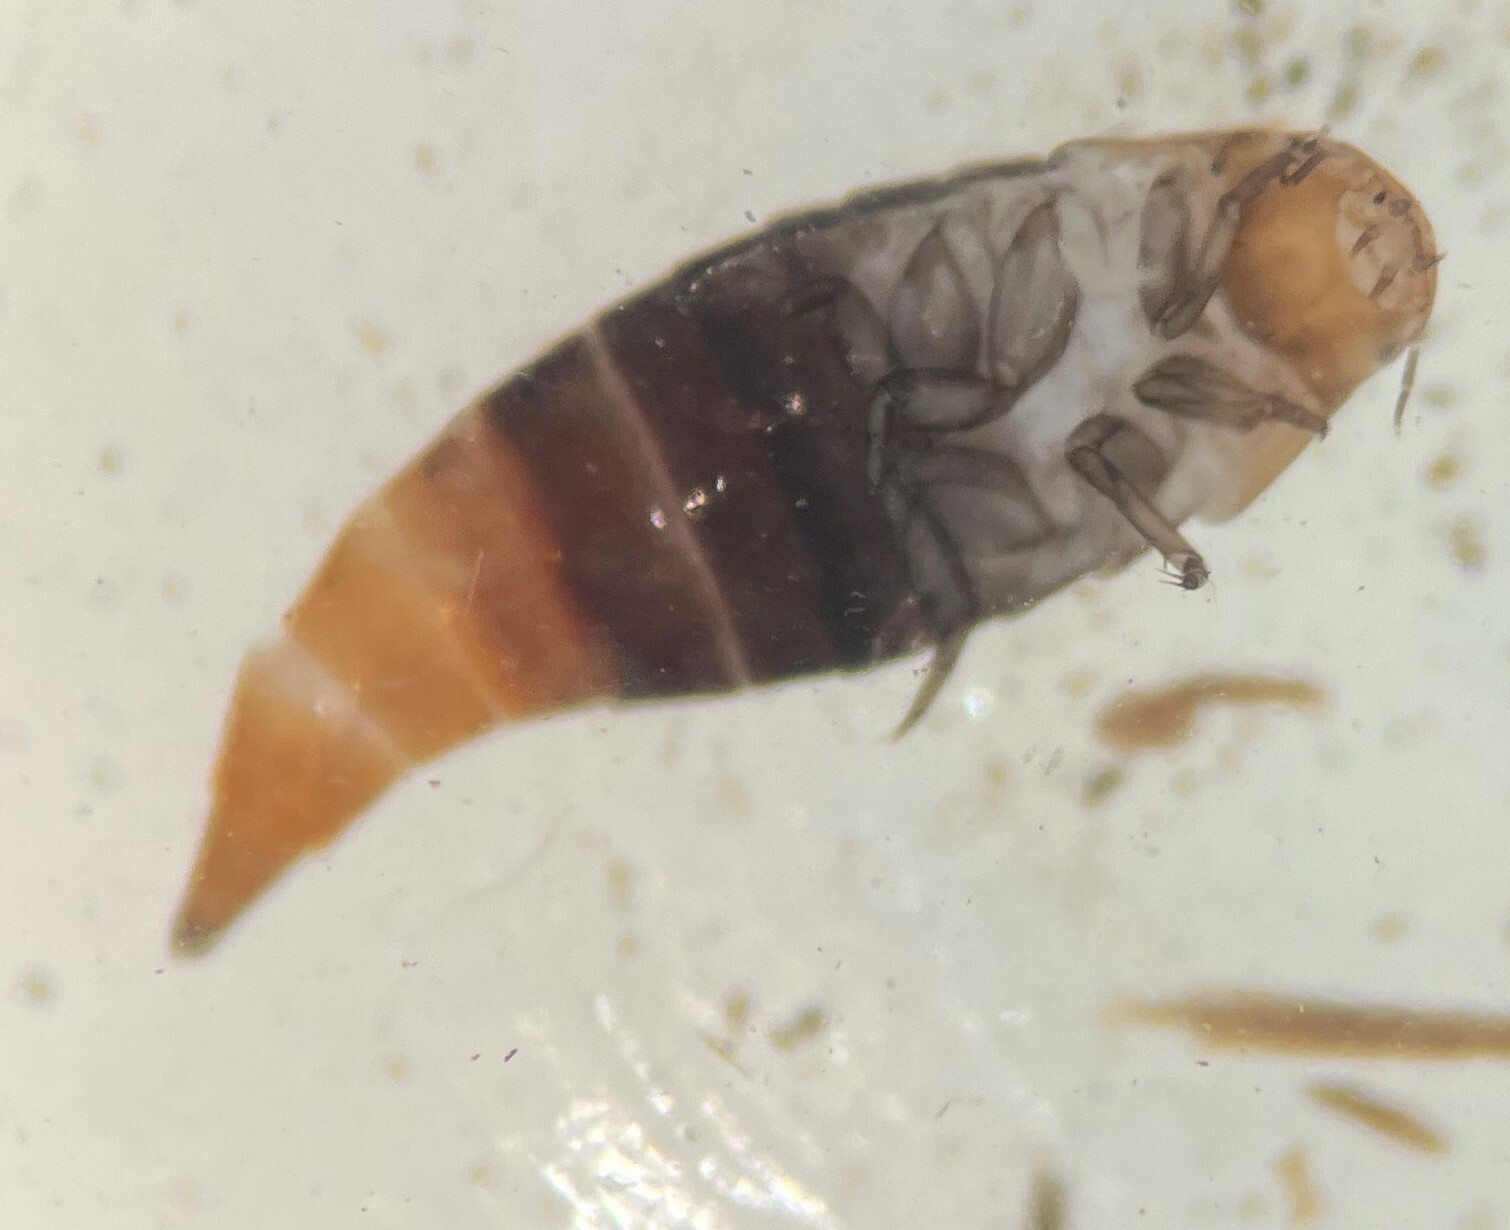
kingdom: Animalia
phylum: Arthropoda
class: Insecta
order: Coleoptera
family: Noteridae
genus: Hydrocanthus
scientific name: Hydrocanthus
